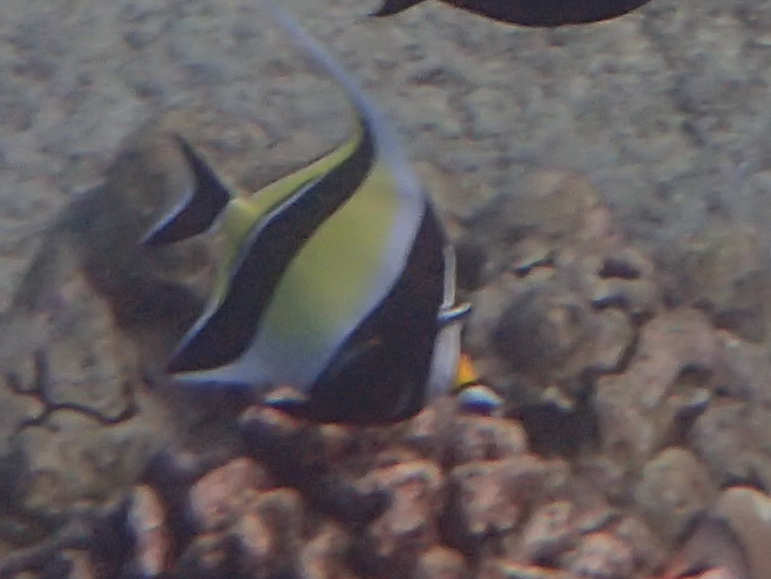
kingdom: Animalia
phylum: Chordata
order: Perciformes
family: Zanclidae
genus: Zanclus
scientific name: Zanclus cornutus
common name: Moorish idol
